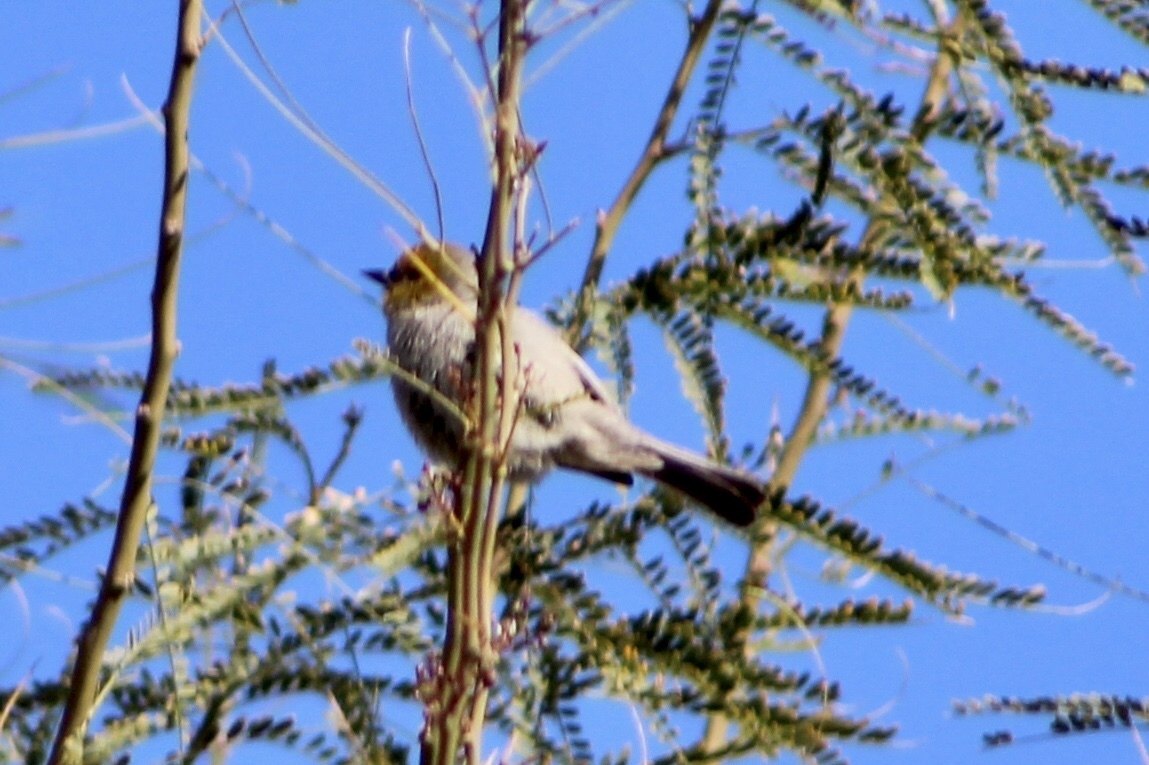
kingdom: Animalia
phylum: Chordata
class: Aves
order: Passeriformes
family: Remizidae
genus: Auriparus
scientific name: Auriparus flaviceps
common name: Verdin
